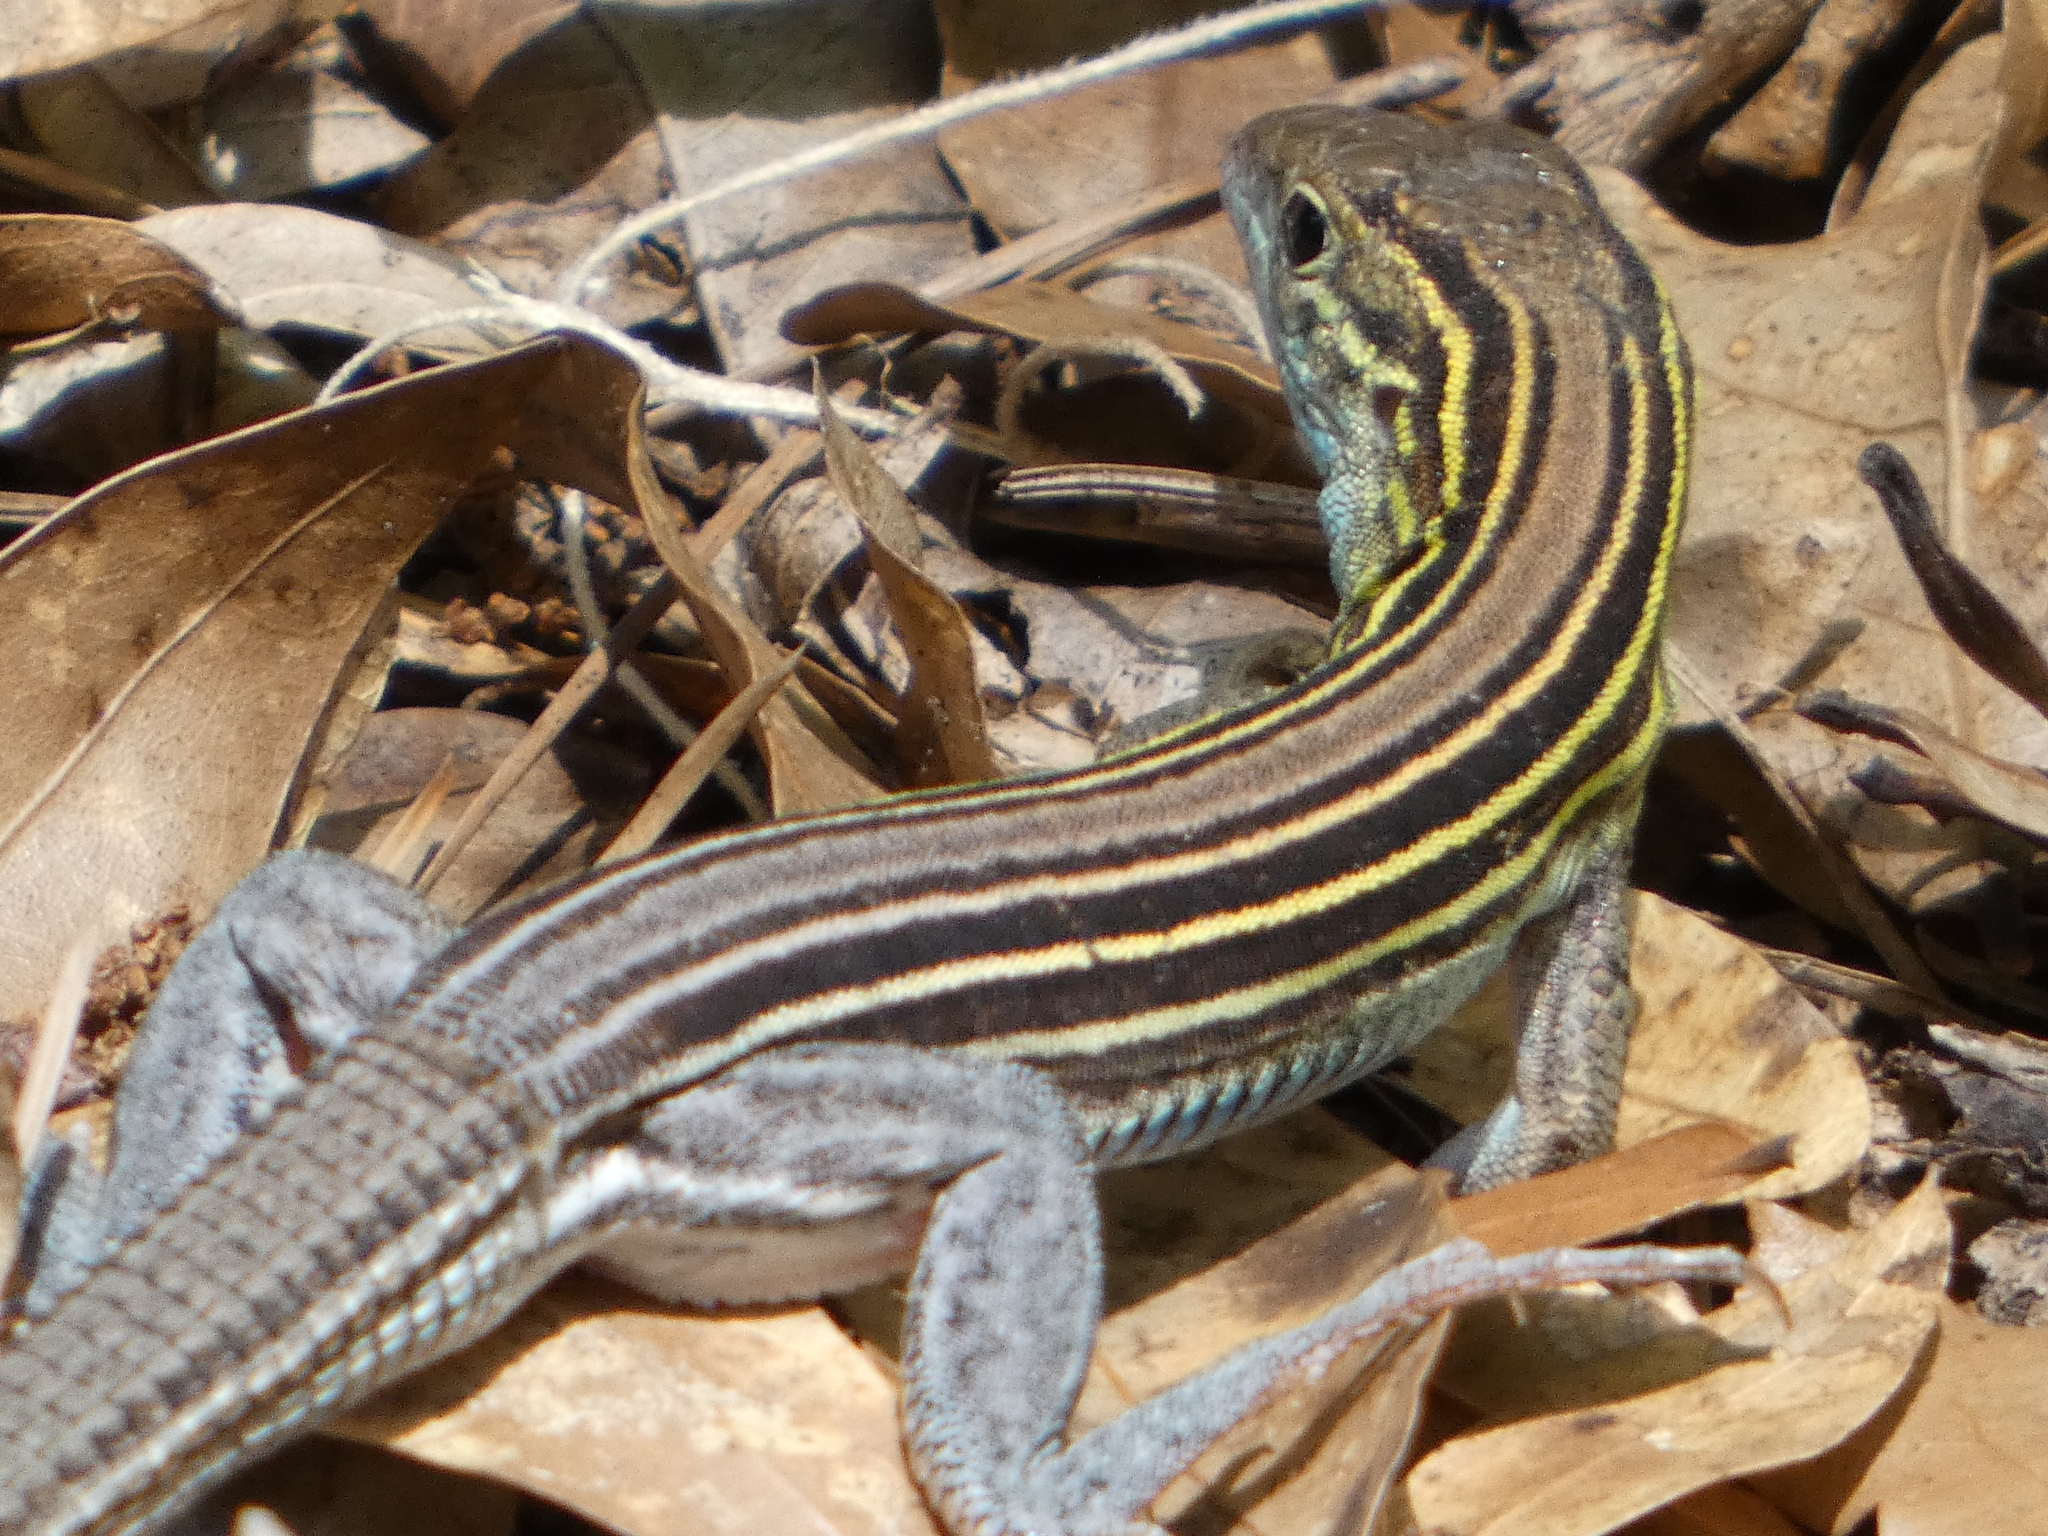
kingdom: Animalia
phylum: Chordata
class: Squamata
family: Teiidae
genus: Aspidoscelis
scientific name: Aspidoscelis sexlineatus
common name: Six-lined racerunner
